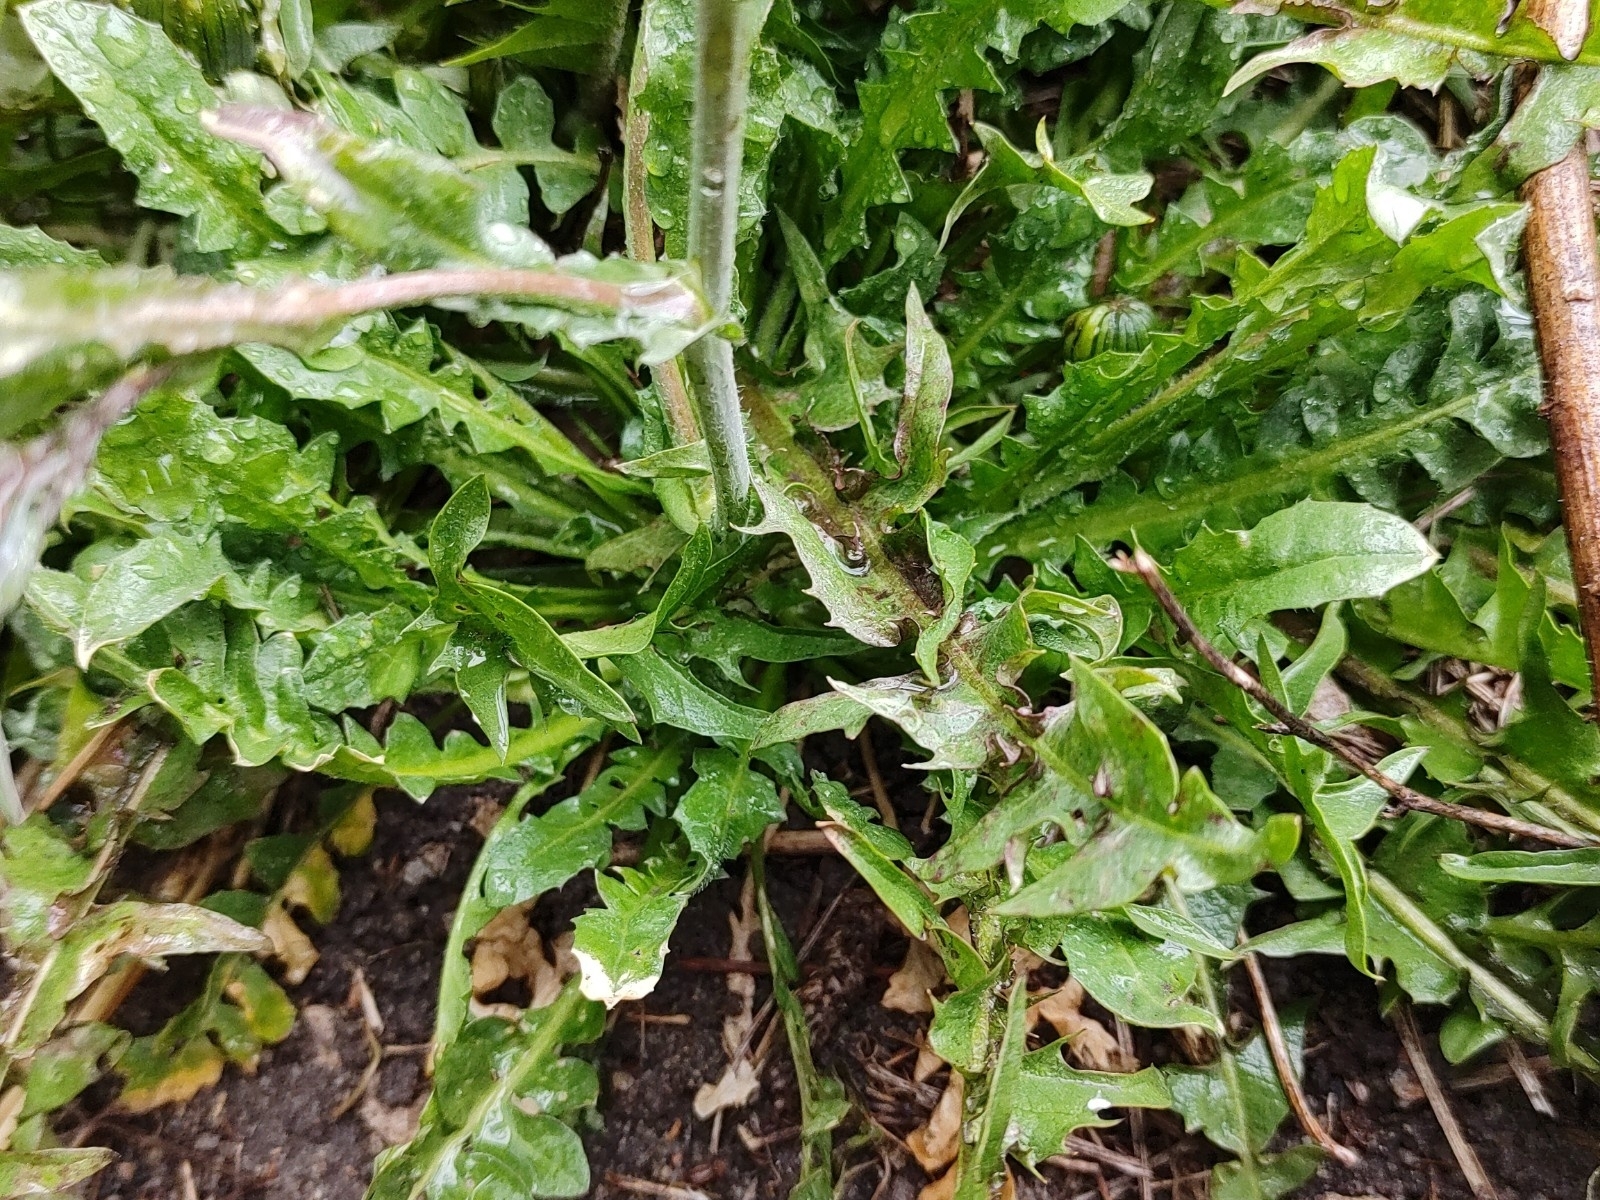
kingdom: Plantae
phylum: Tracheophyta
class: Magnoliopsida
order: Brassicales
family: Brassicaceae
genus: Capsella
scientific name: Capsella bursa-pastoris
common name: Shepherd's purse
